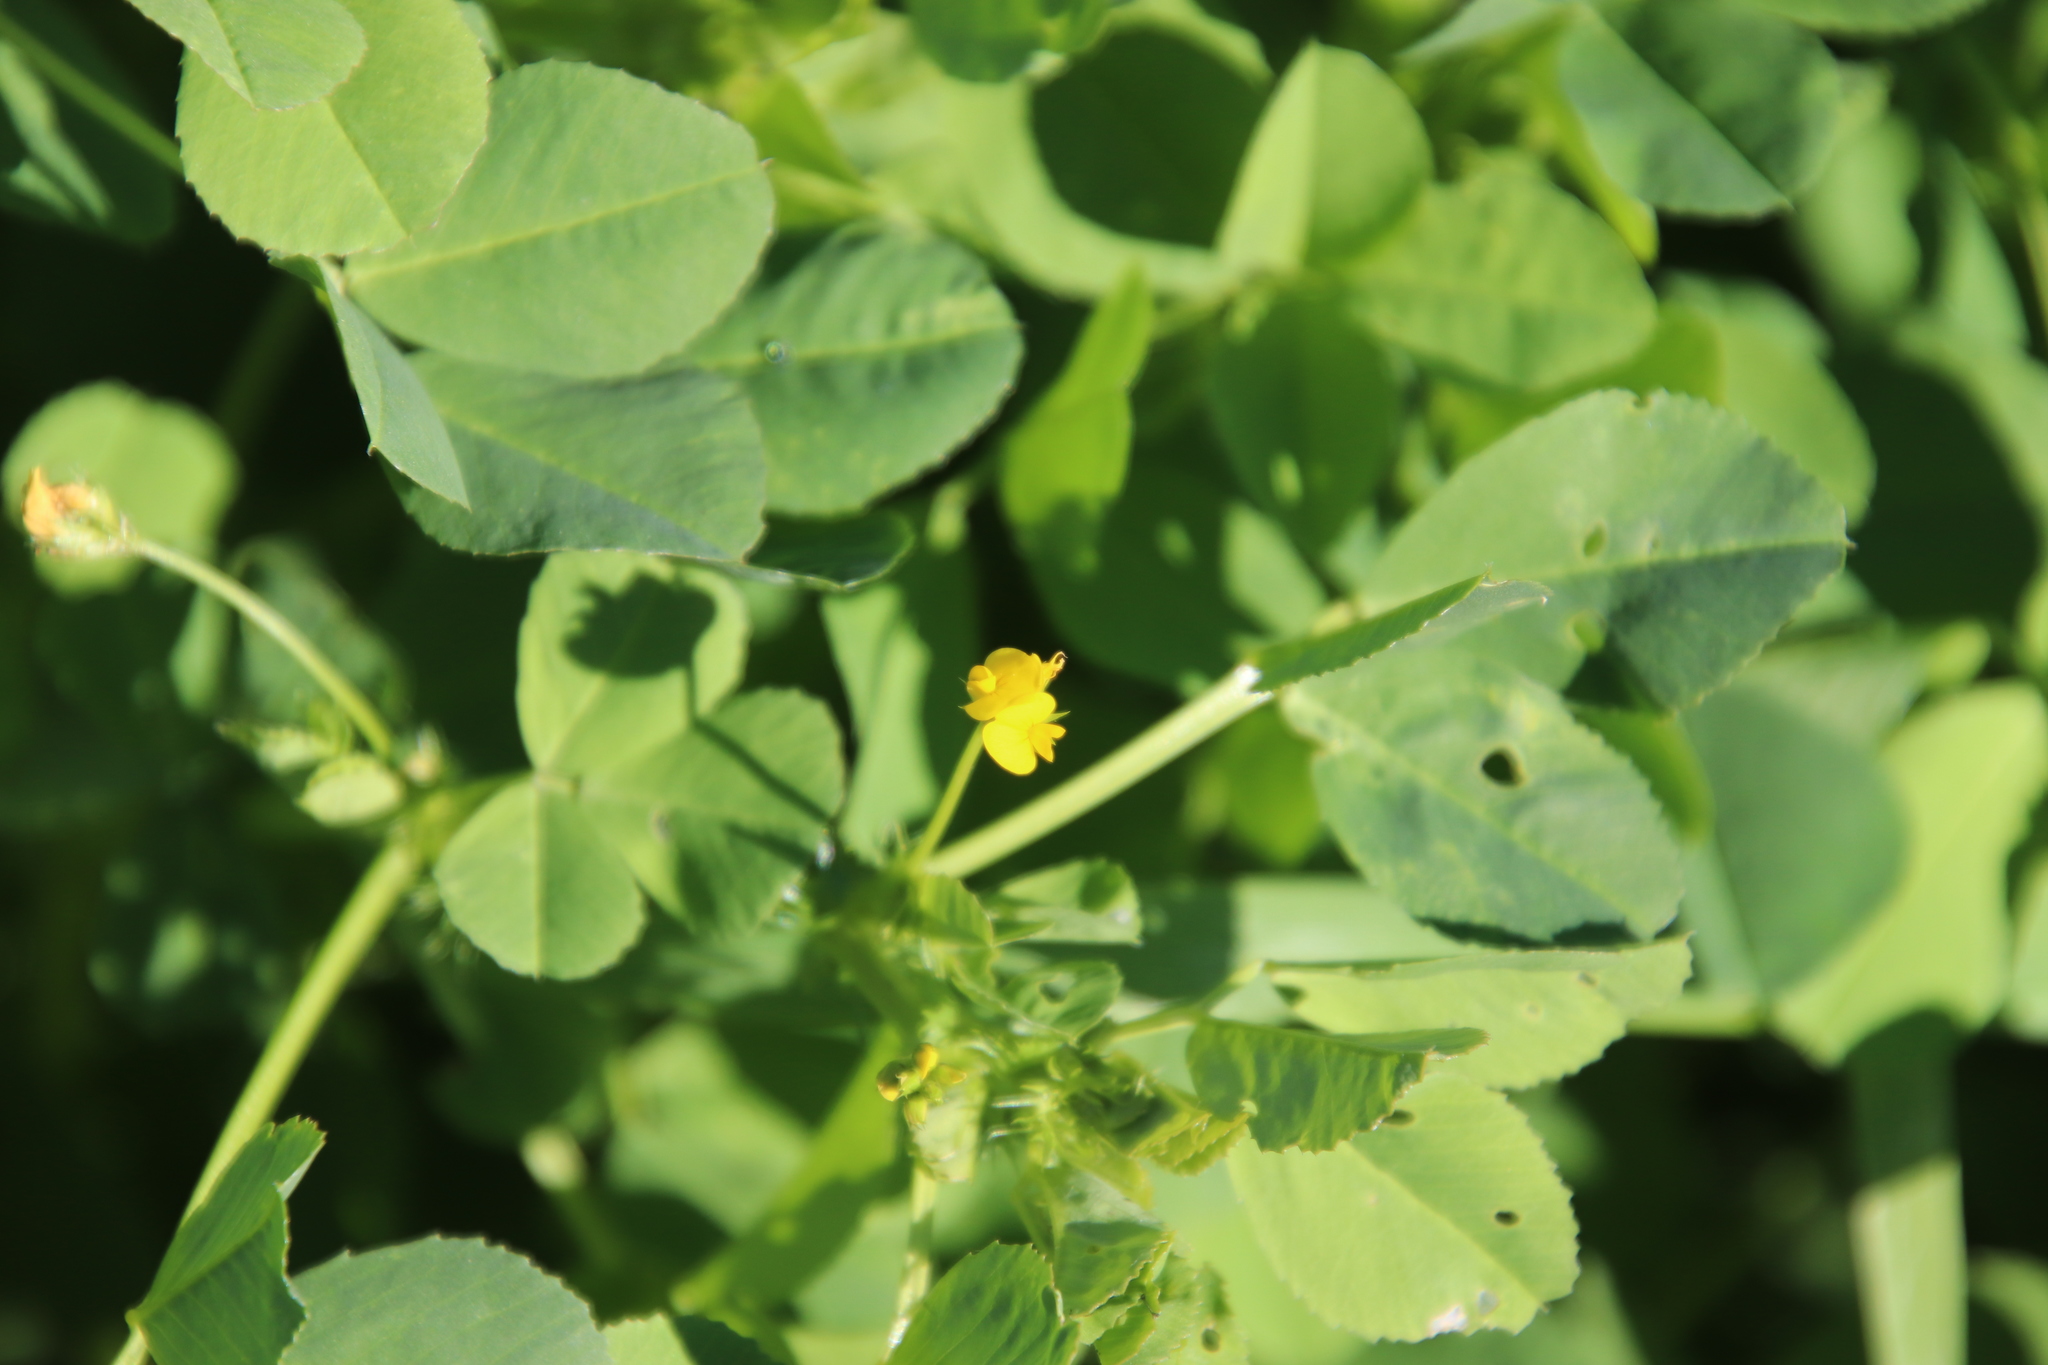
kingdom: Plantae
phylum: Tracheophyta
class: Magnoliopsida
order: Fabales
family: Fabaceae
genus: Medicago
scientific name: Medicago polymorpha
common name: Burclover
